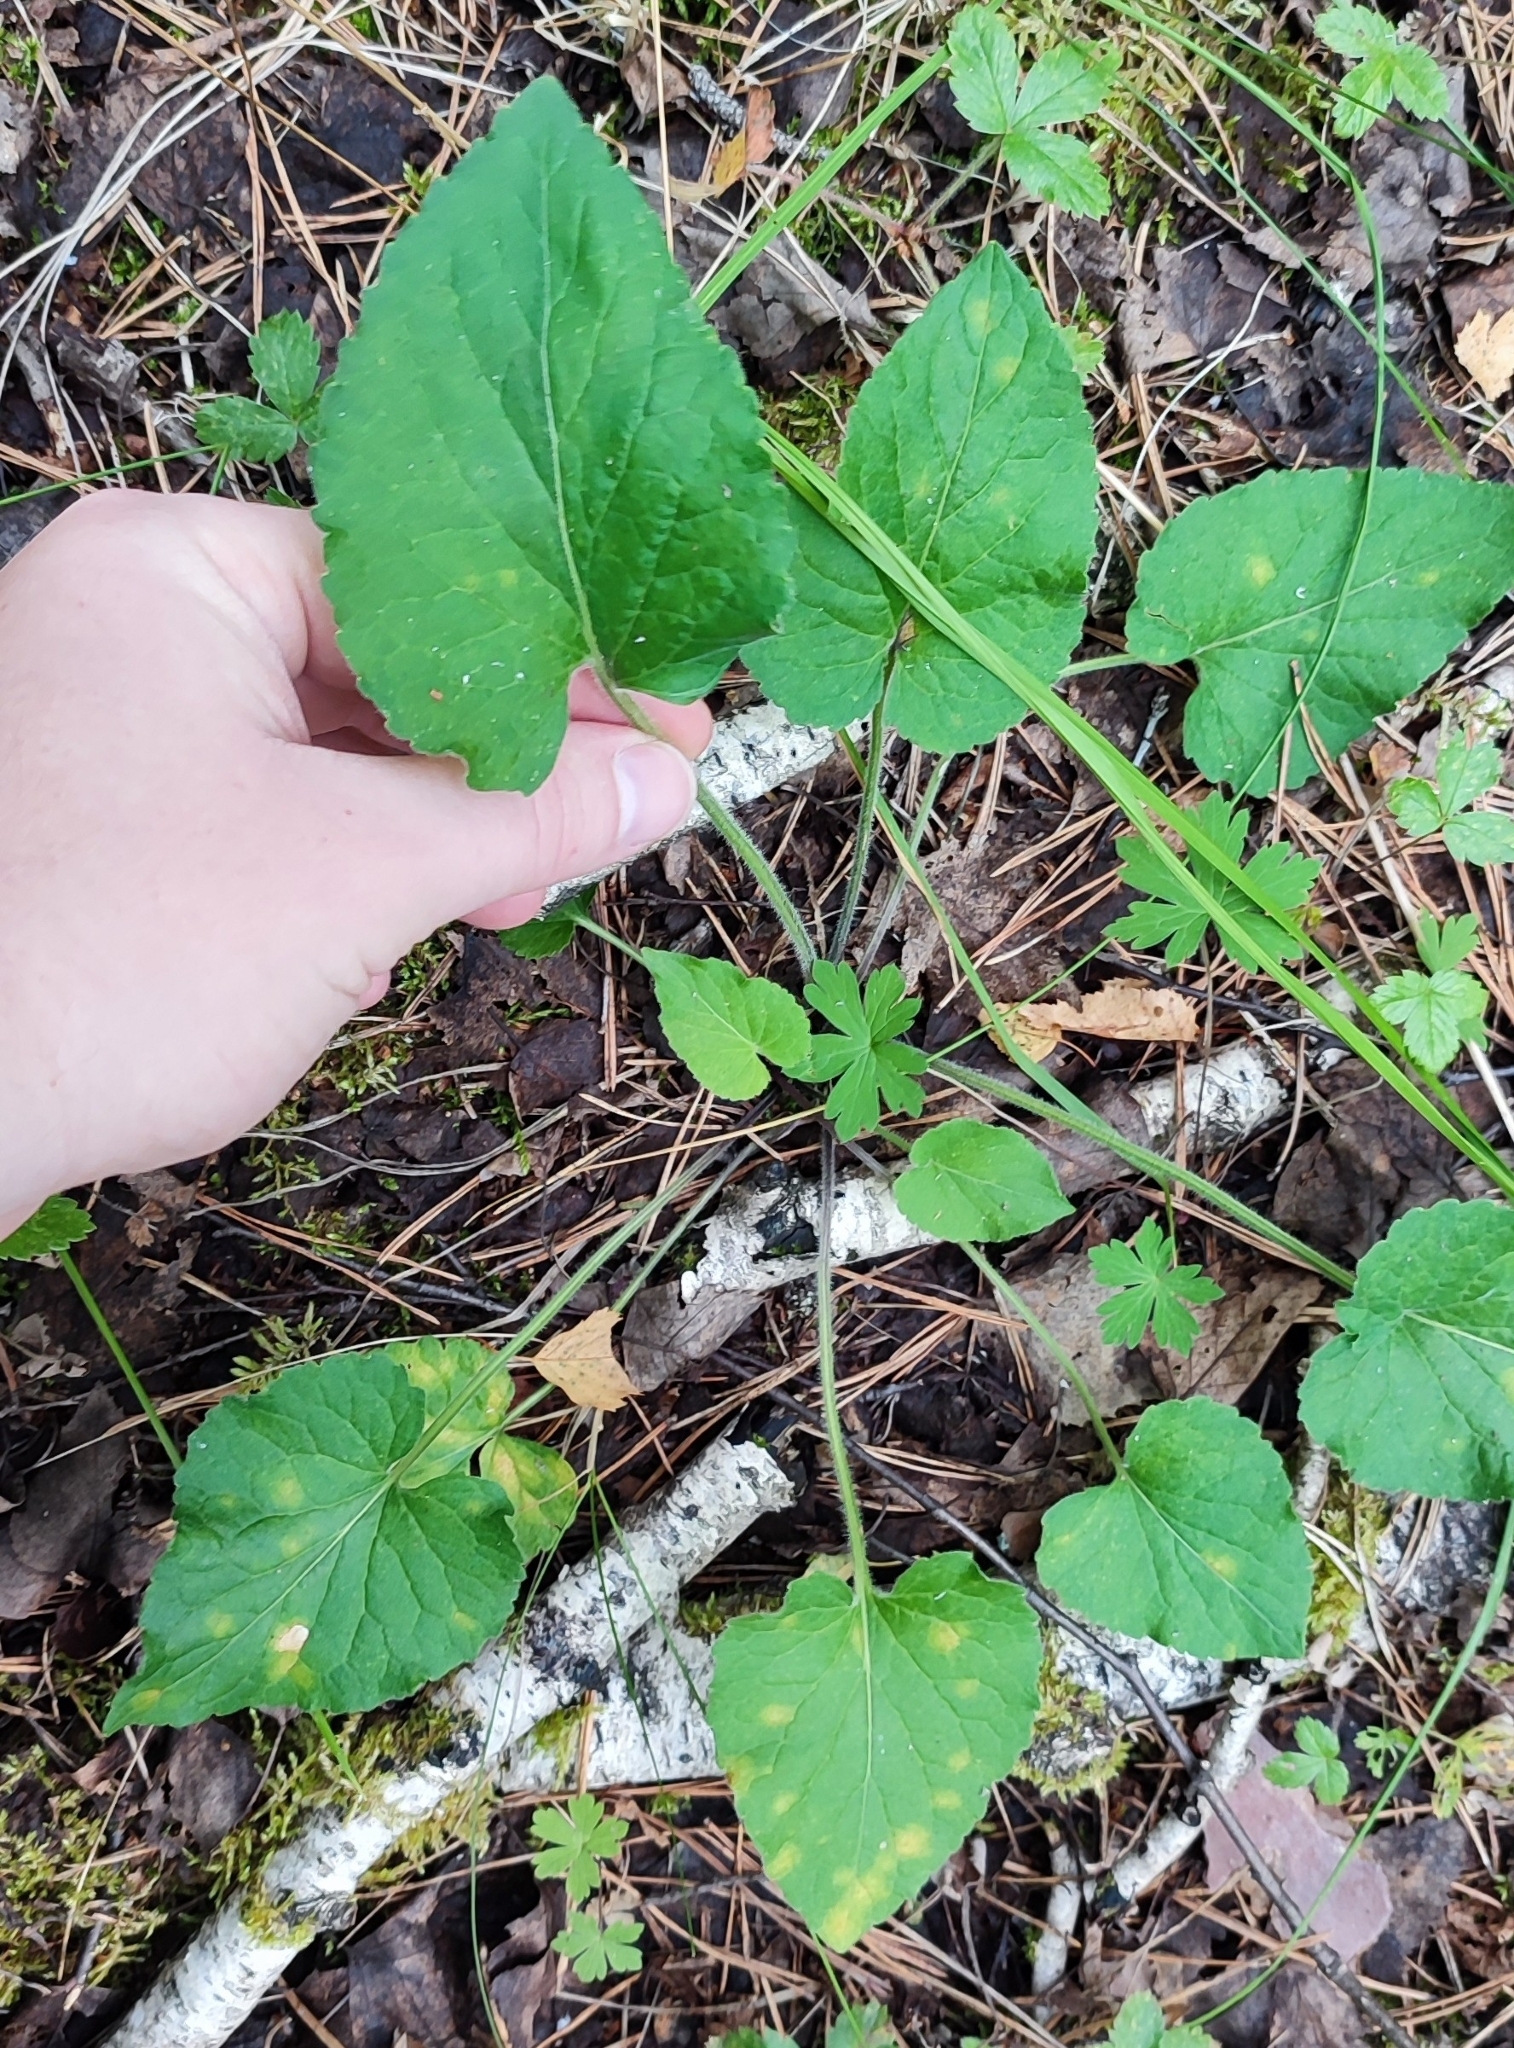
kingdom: Plantae
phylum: Tracheophyta
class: Magnoliopsida
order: Malpighiales
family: Violaceae
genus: Viola
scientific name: Viola hirta
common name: Hairy violet
